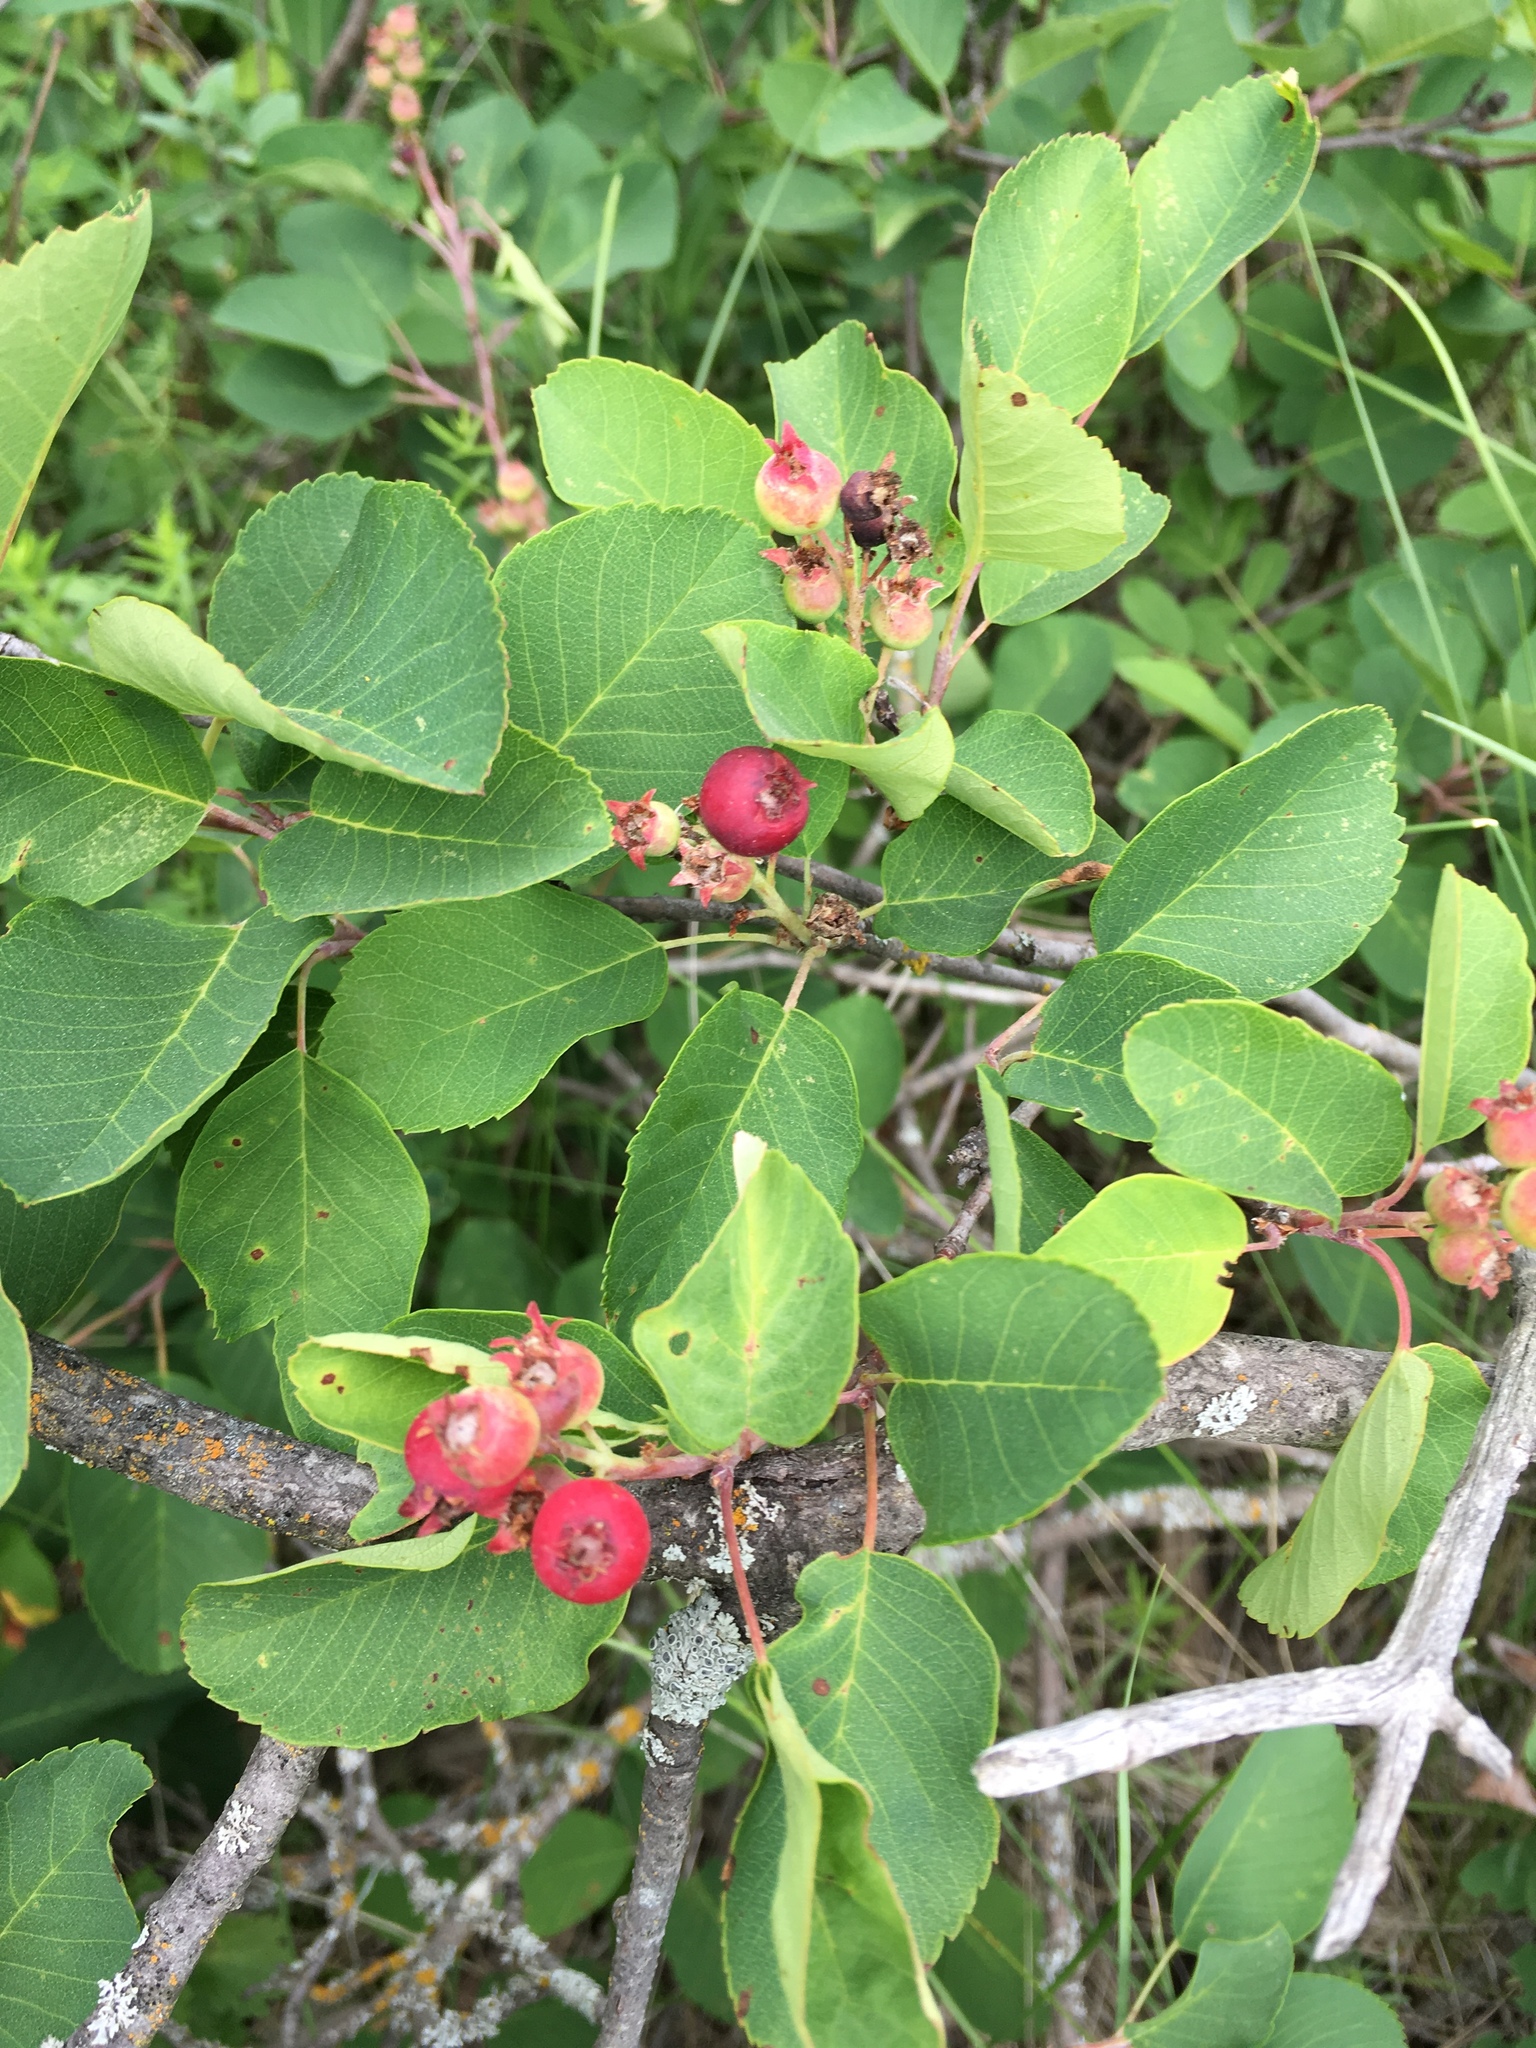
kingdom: Plantae
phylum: Tracheophyta
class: Magnoliopsida
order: Rosales
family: Rosaceae
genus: Amelanchier
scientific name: Amelanchier alnifolia
